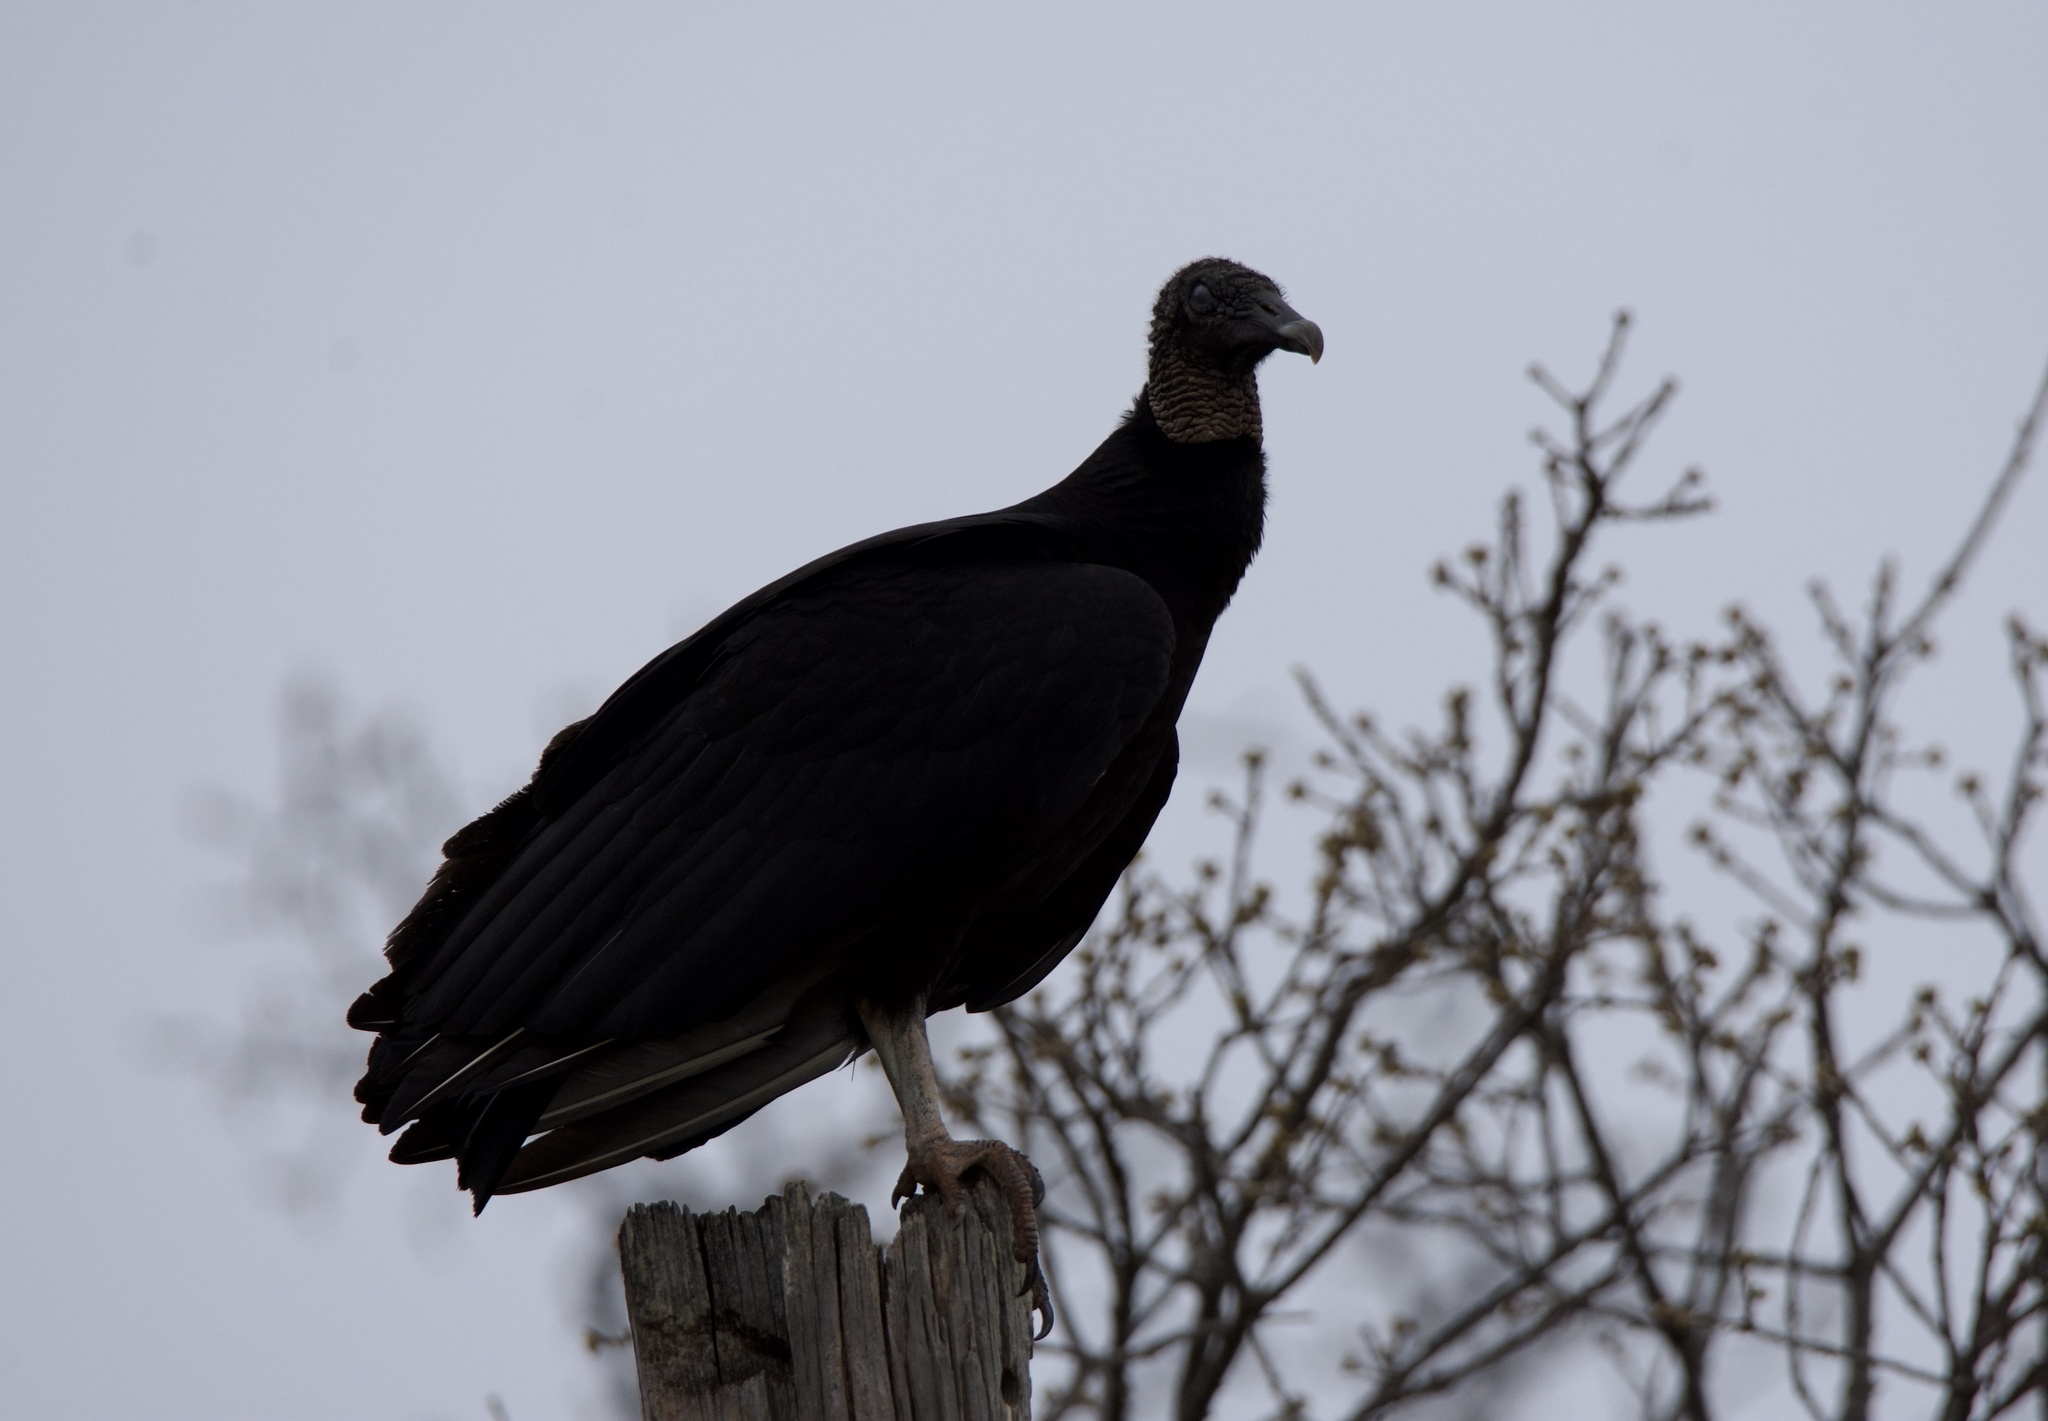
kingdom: Animalia
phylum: Chordata
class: Aves
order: Accipitriformes
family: Cathartidae
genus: Coragyps
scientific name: Coragyps atratus
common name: Black vulture
